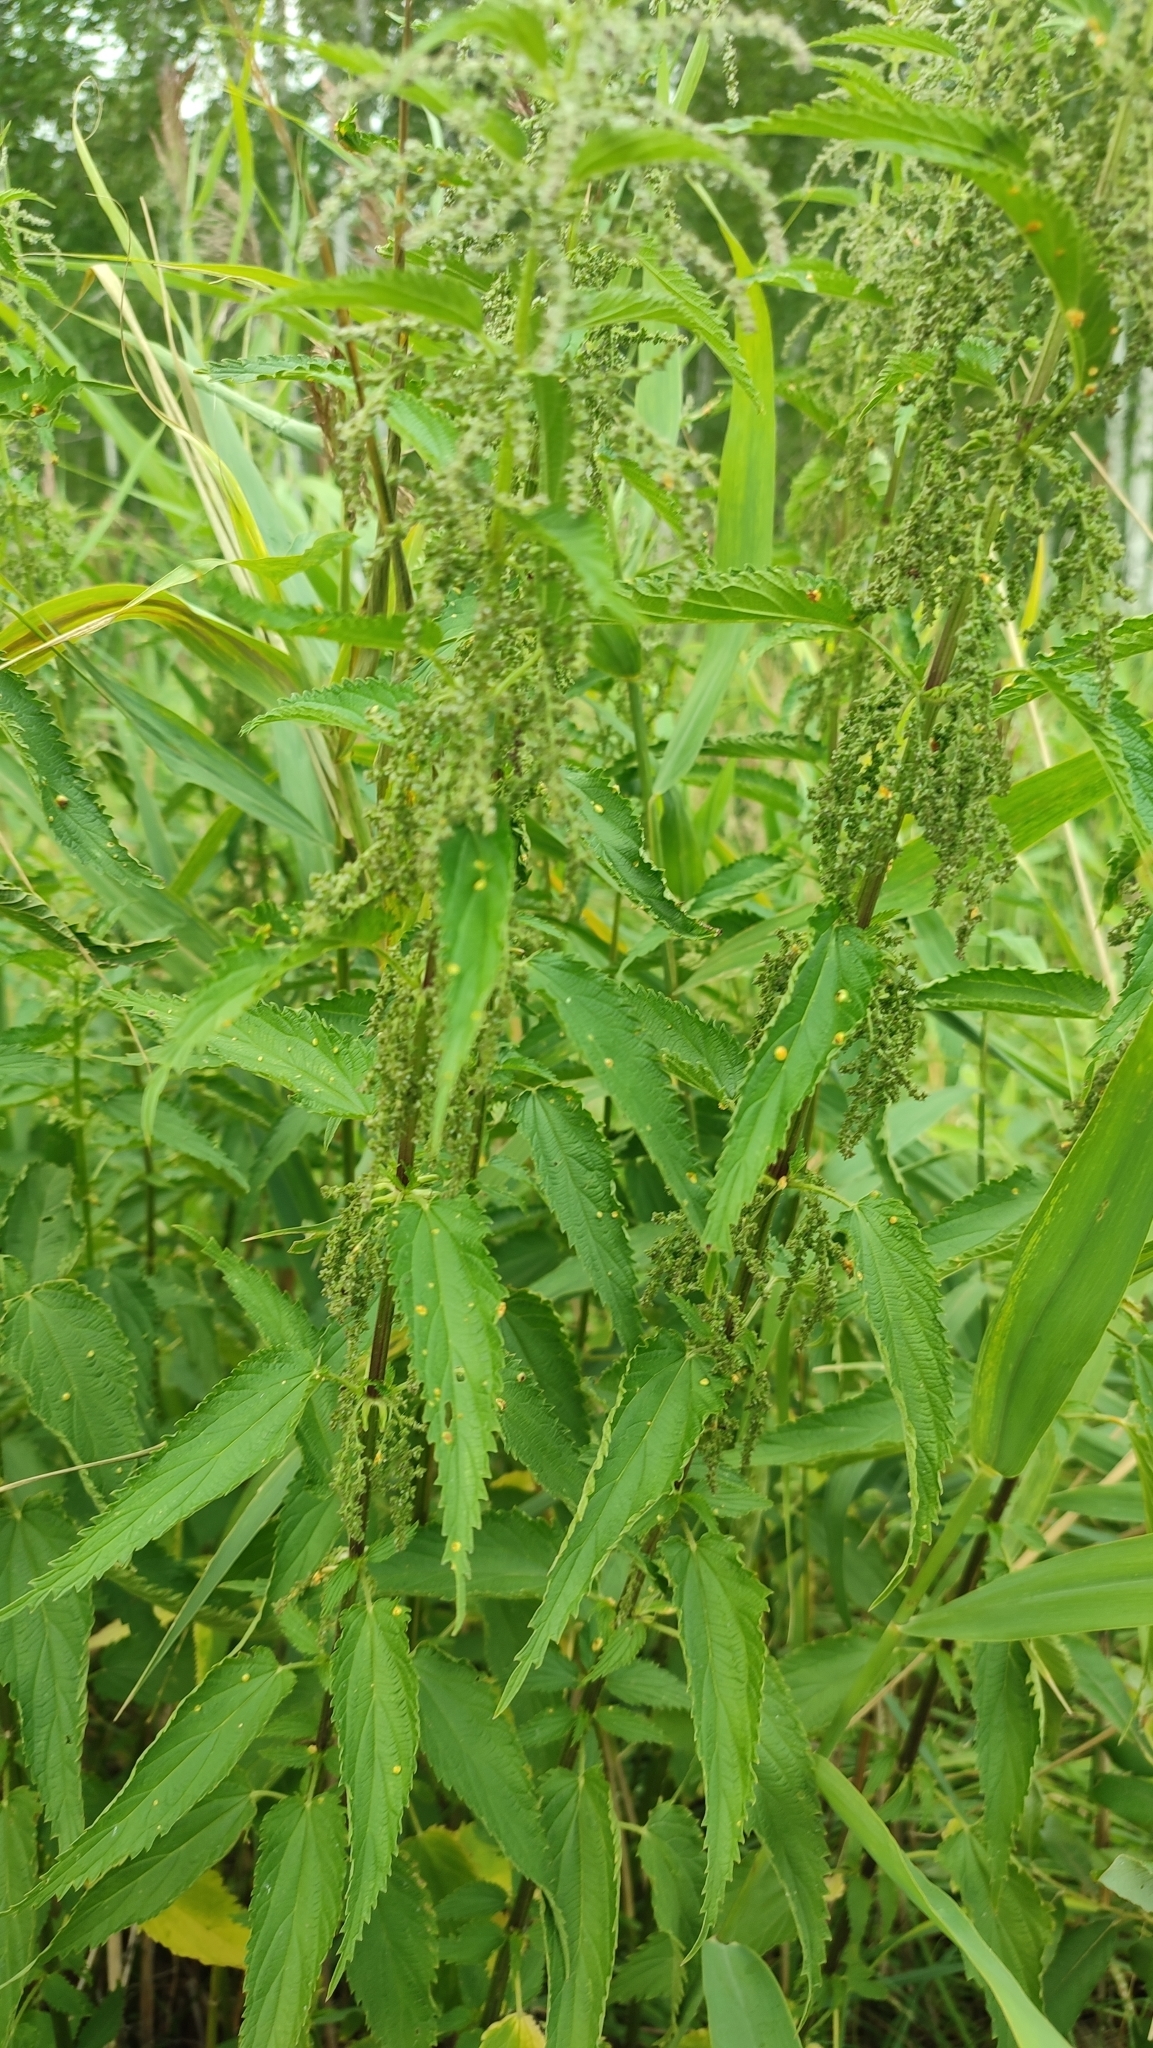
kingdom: Plantae
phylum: Tracheophyta
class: Magnoliopsida
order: Rosales
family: Urticaceae
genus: Urtica
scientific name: Urtica galeopsifolia
